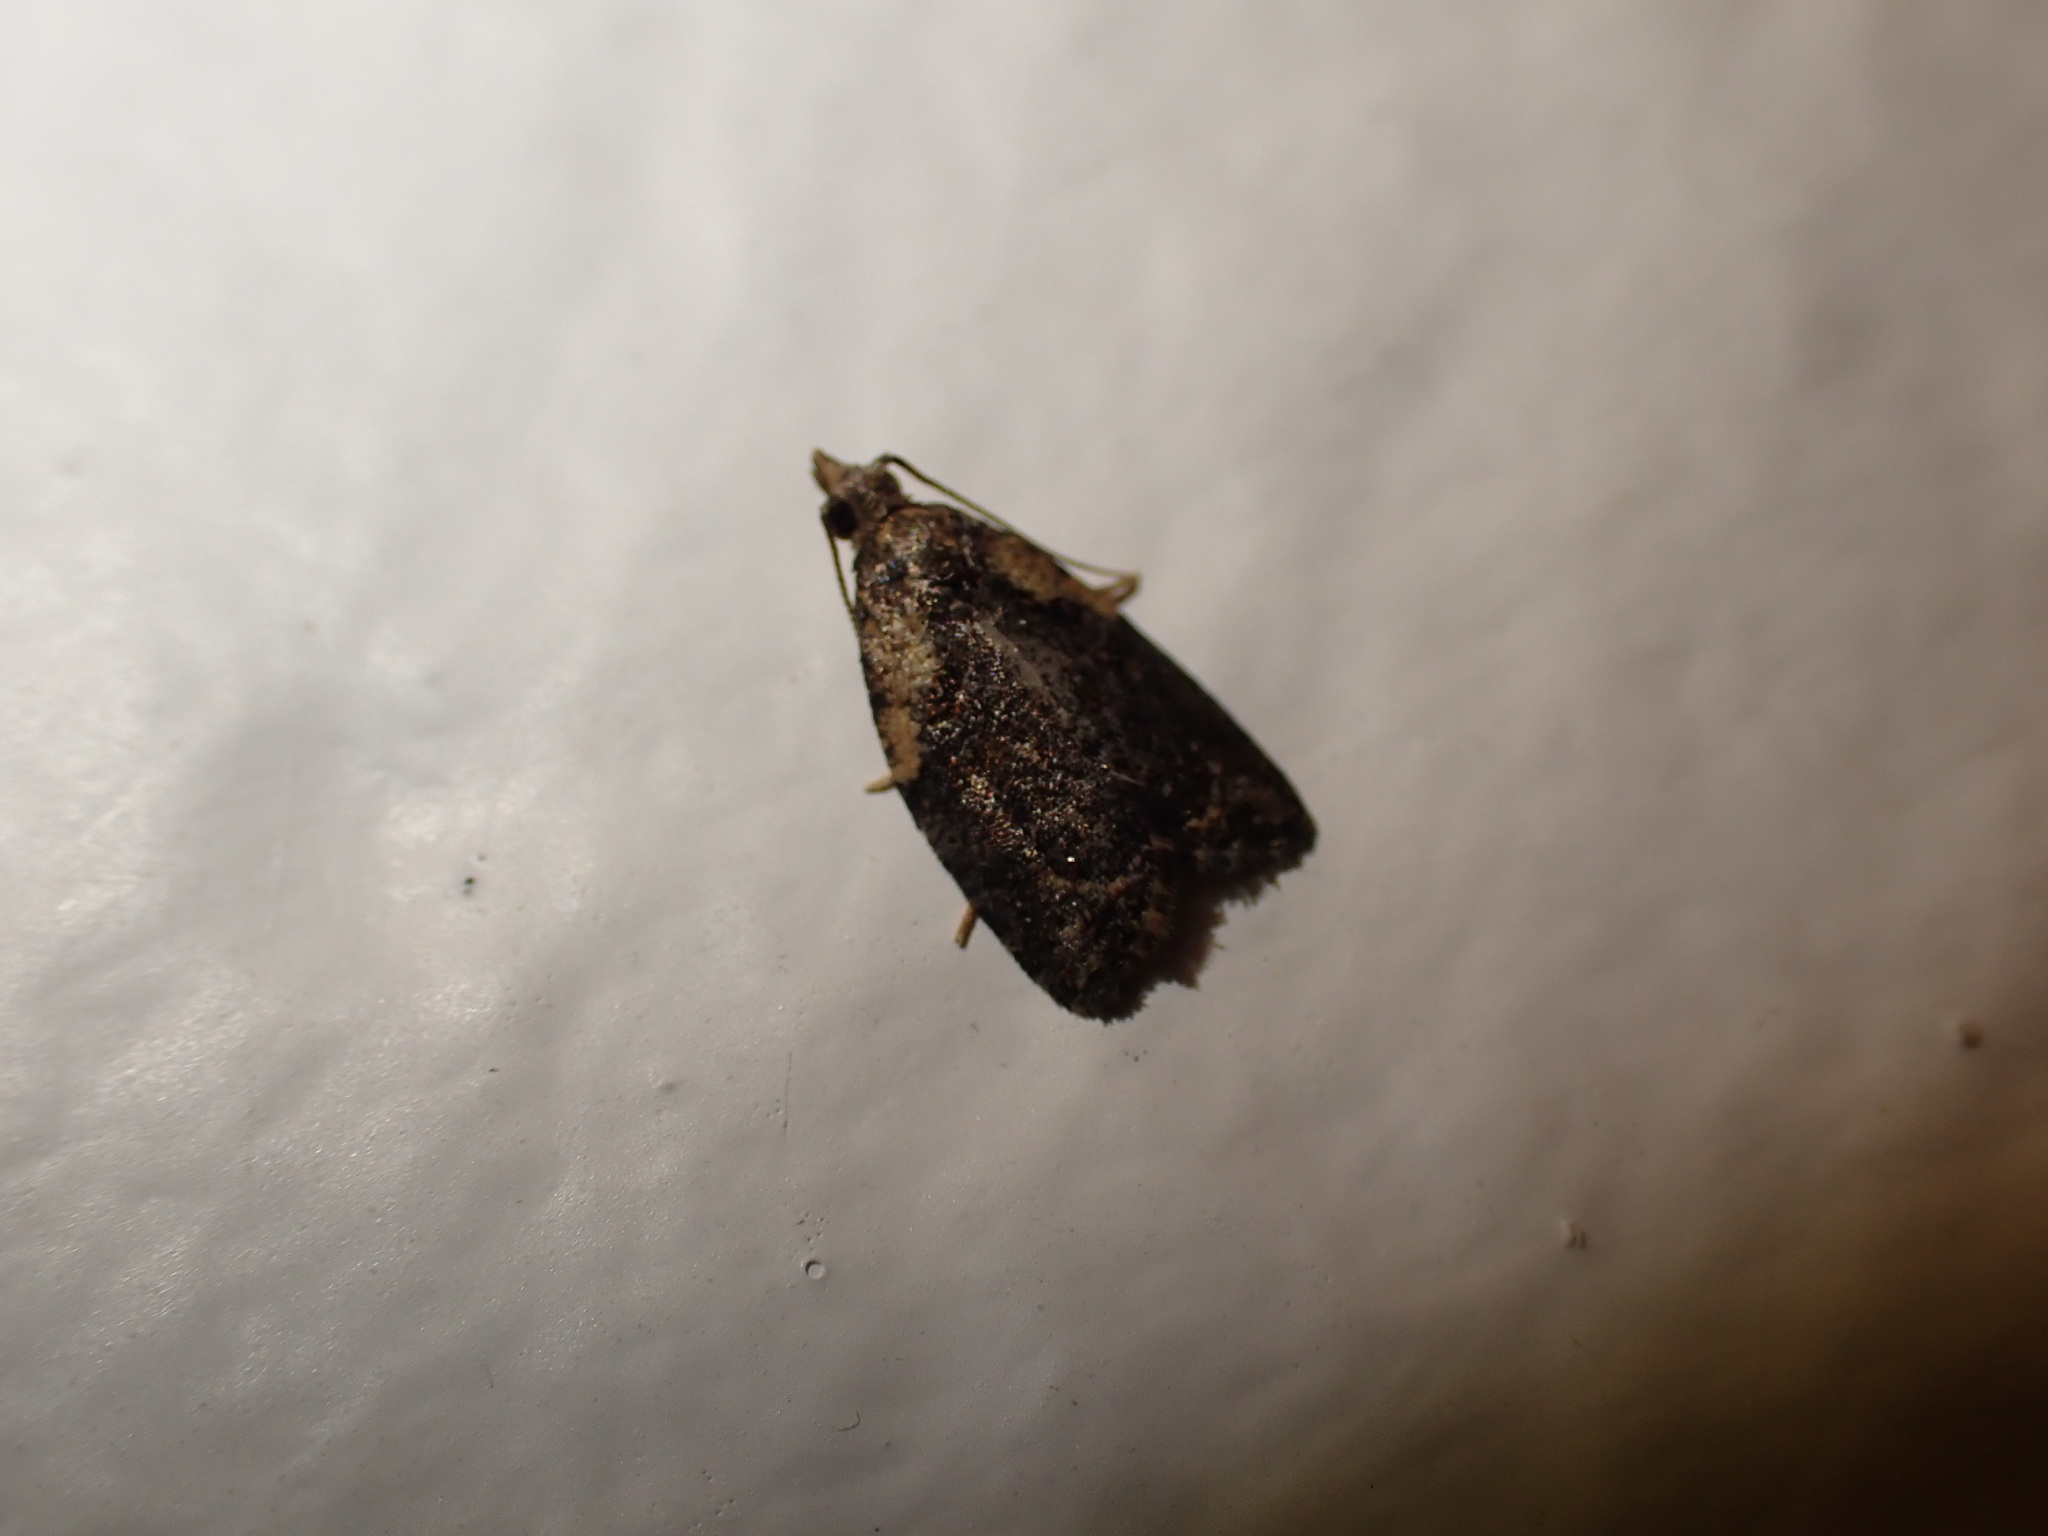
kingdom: Animalia
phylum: Arthropoda
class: Insecta
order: Lepidoptera
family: Tortricidae
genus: Capua
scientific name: Capua intractana
